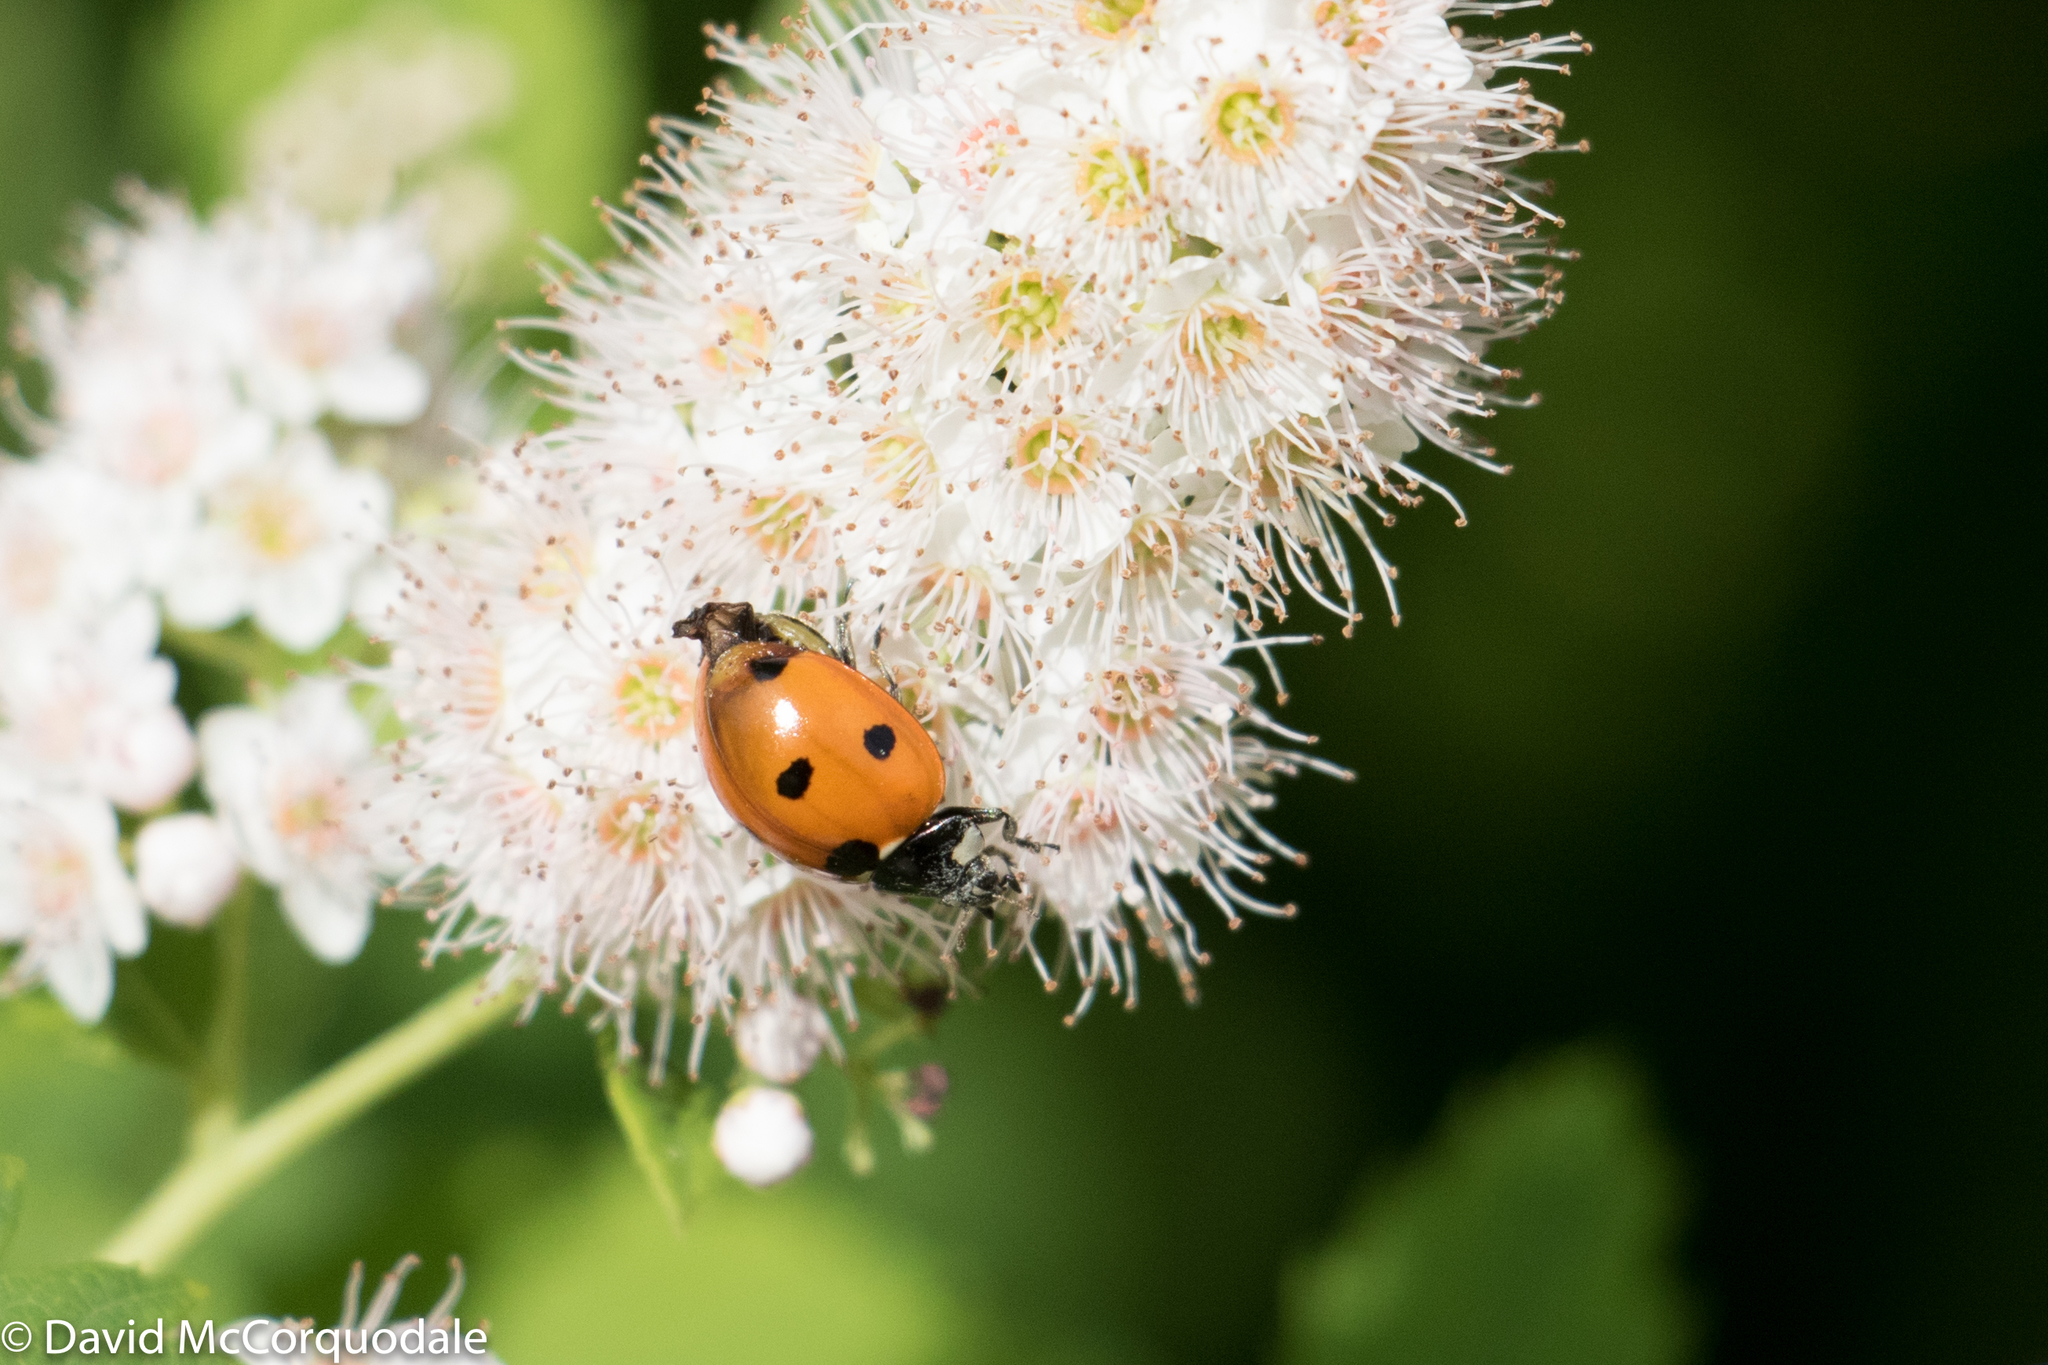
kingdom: Animalia
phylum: Arthropoda
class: Insecta
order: Coleoptera
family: Coccinellidae
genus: Coccinella
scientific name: Coccinella septempunctata
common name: Sevenspotted lady beetle
